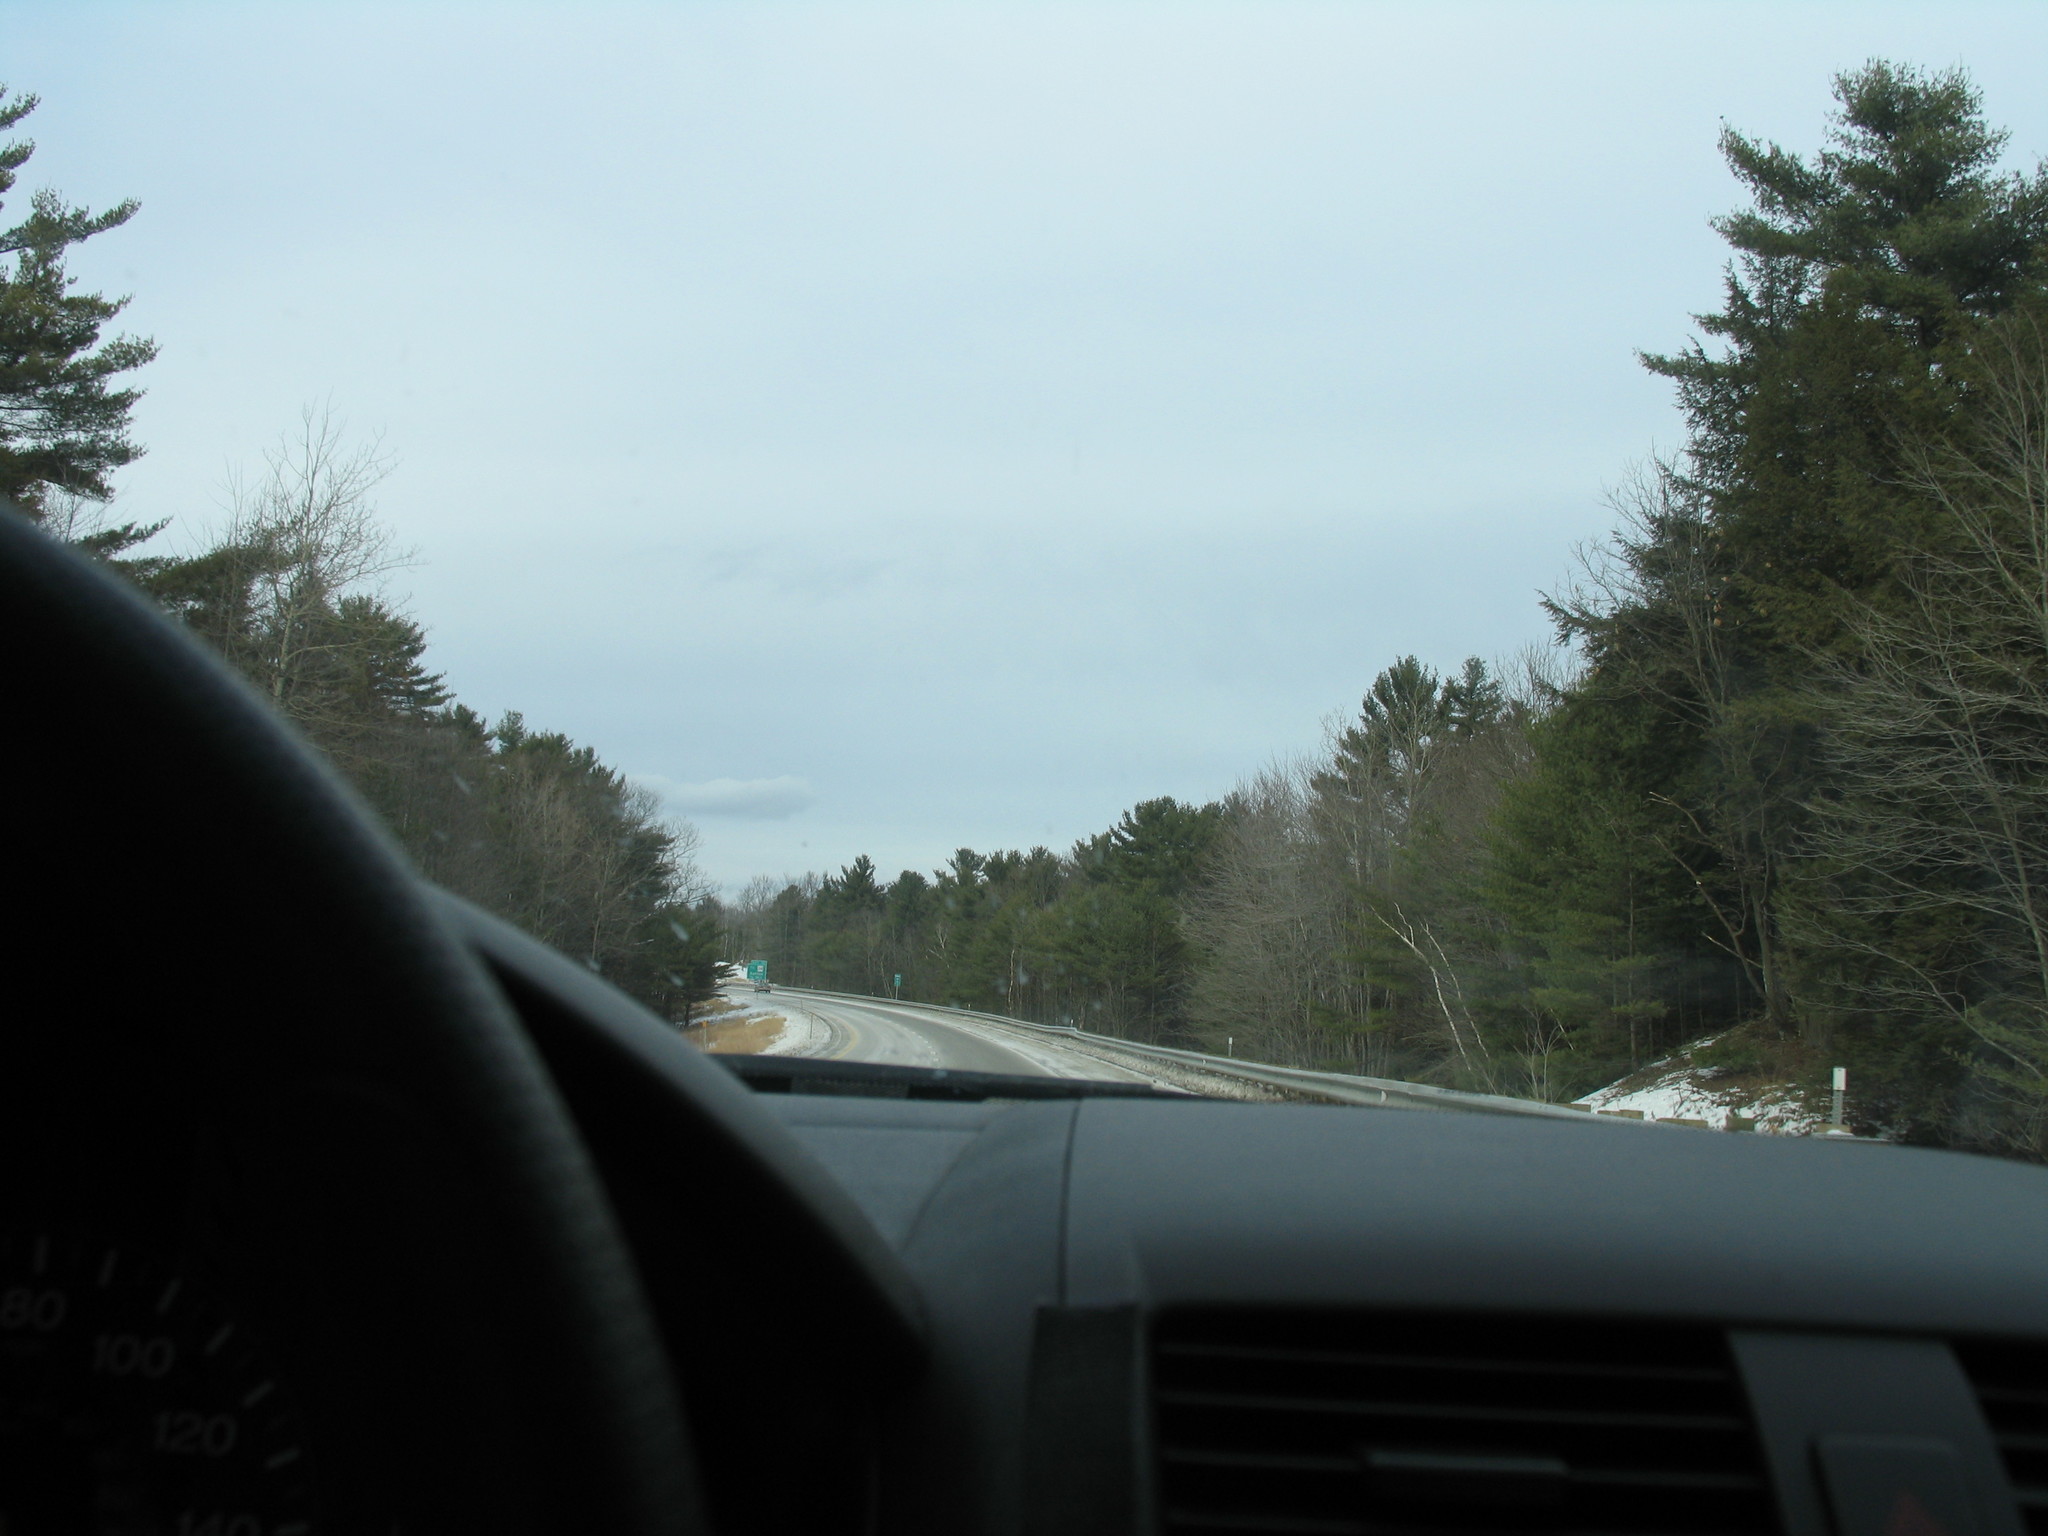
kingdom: Plantae
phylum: Tracheophyta
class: Pinopsida
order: Pinales
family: Pinaceae
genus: Pinus
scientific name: Pinus strobus
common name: Weymouth pine
